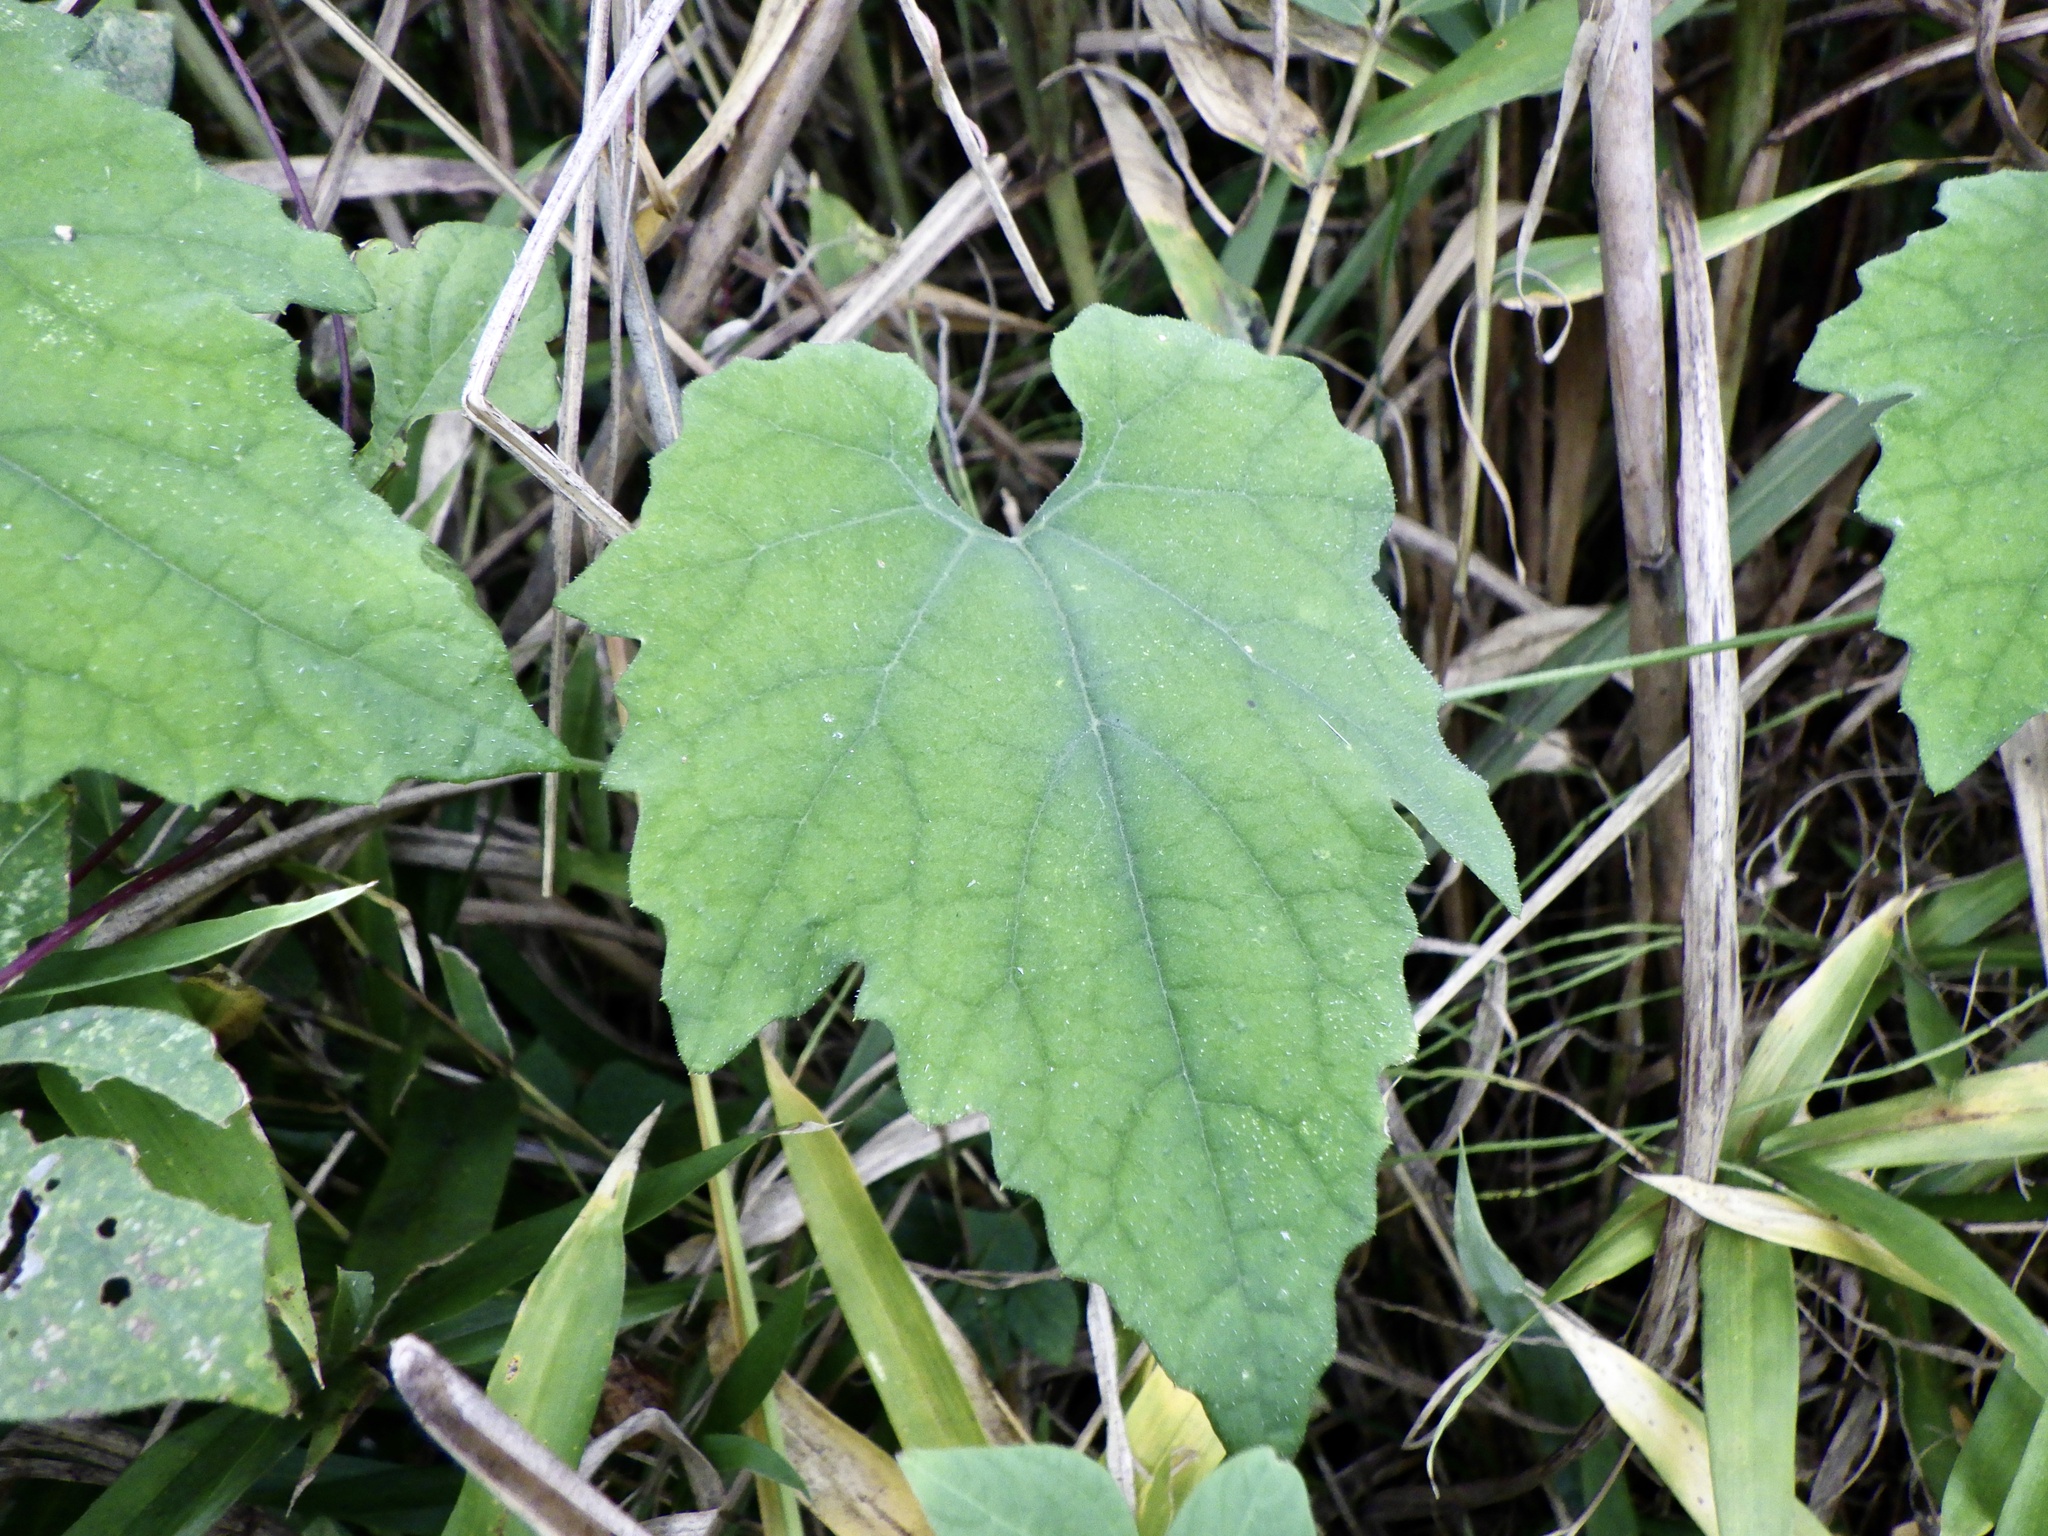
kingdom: Plantae
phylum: Tracheophyta
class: Magnoliopsida
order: Cucurbitales
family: Cucurbitaceae
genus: Trichosanthes
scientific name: Trichosanthes cucumeroides
